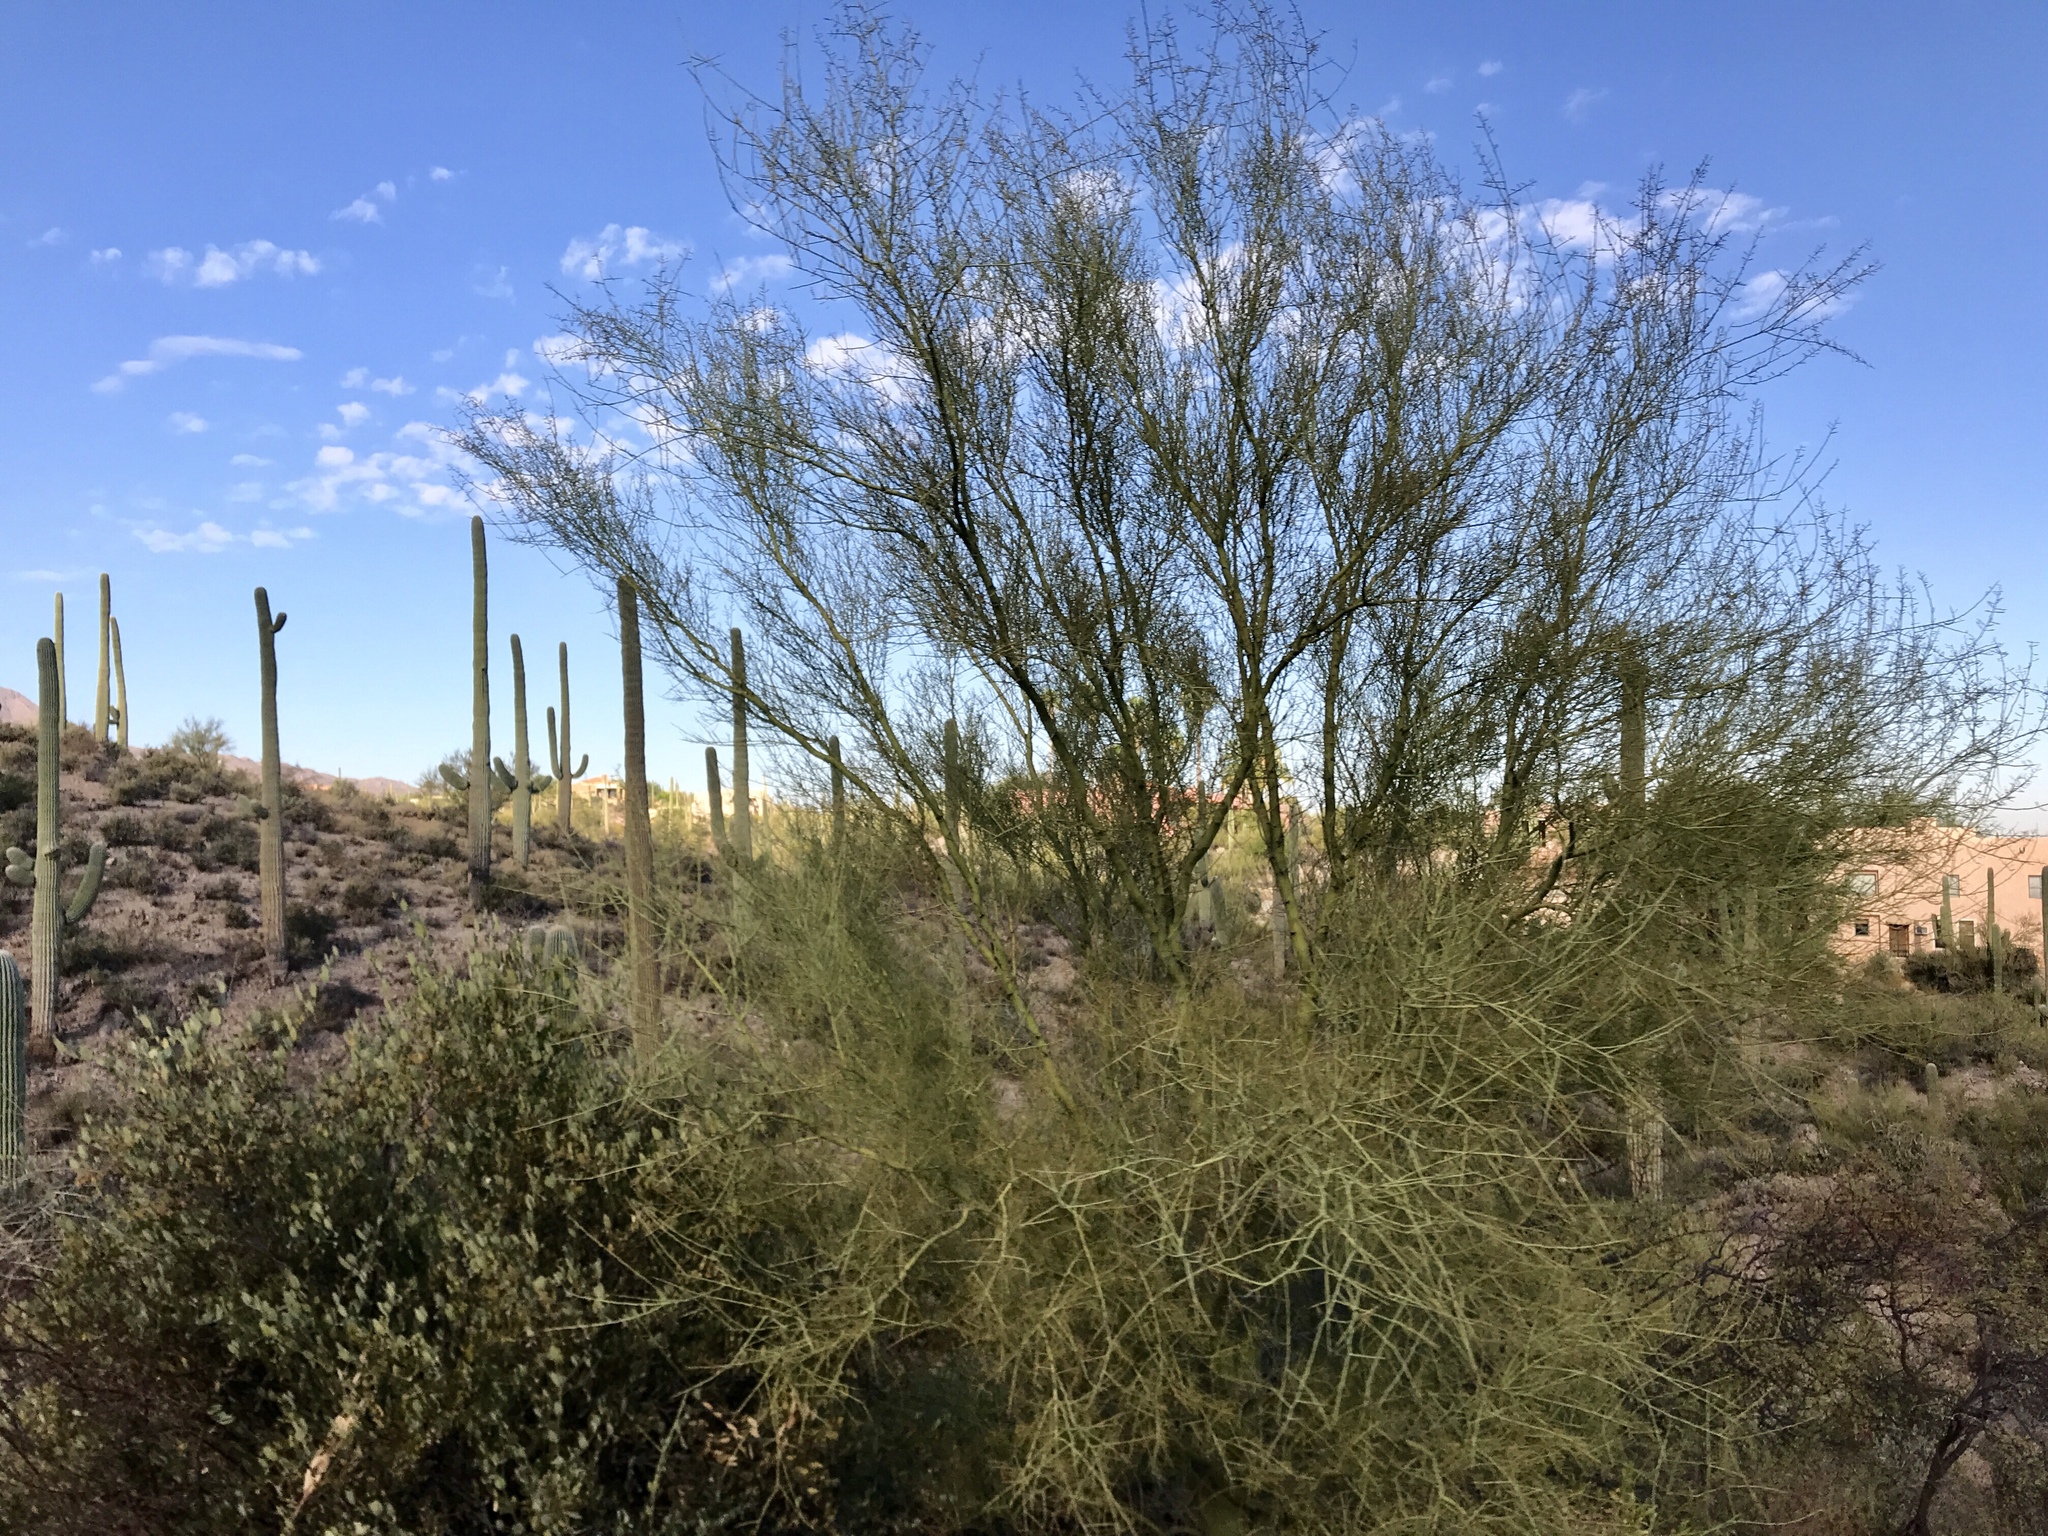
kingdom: Plantae
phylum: Tracheophyta
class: Magnoliopsida
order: Fabales
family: Fabaceae
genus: Parkinsonia
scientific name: Parkinsonia microphylla
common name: Yellow paloverde
